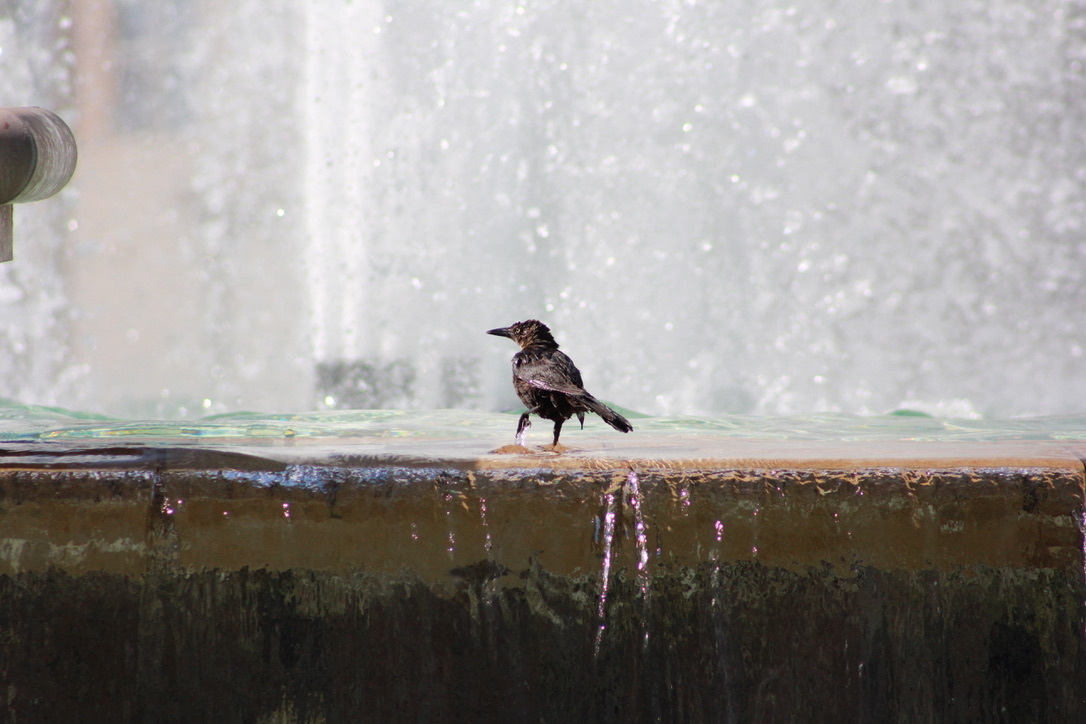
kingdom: Animalia
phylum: Chordata
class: Aves
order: Passeriformes
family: Icteridae
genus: Quiscalus
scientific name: Quiscalus mexicanus
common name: Great-tailed grackle
